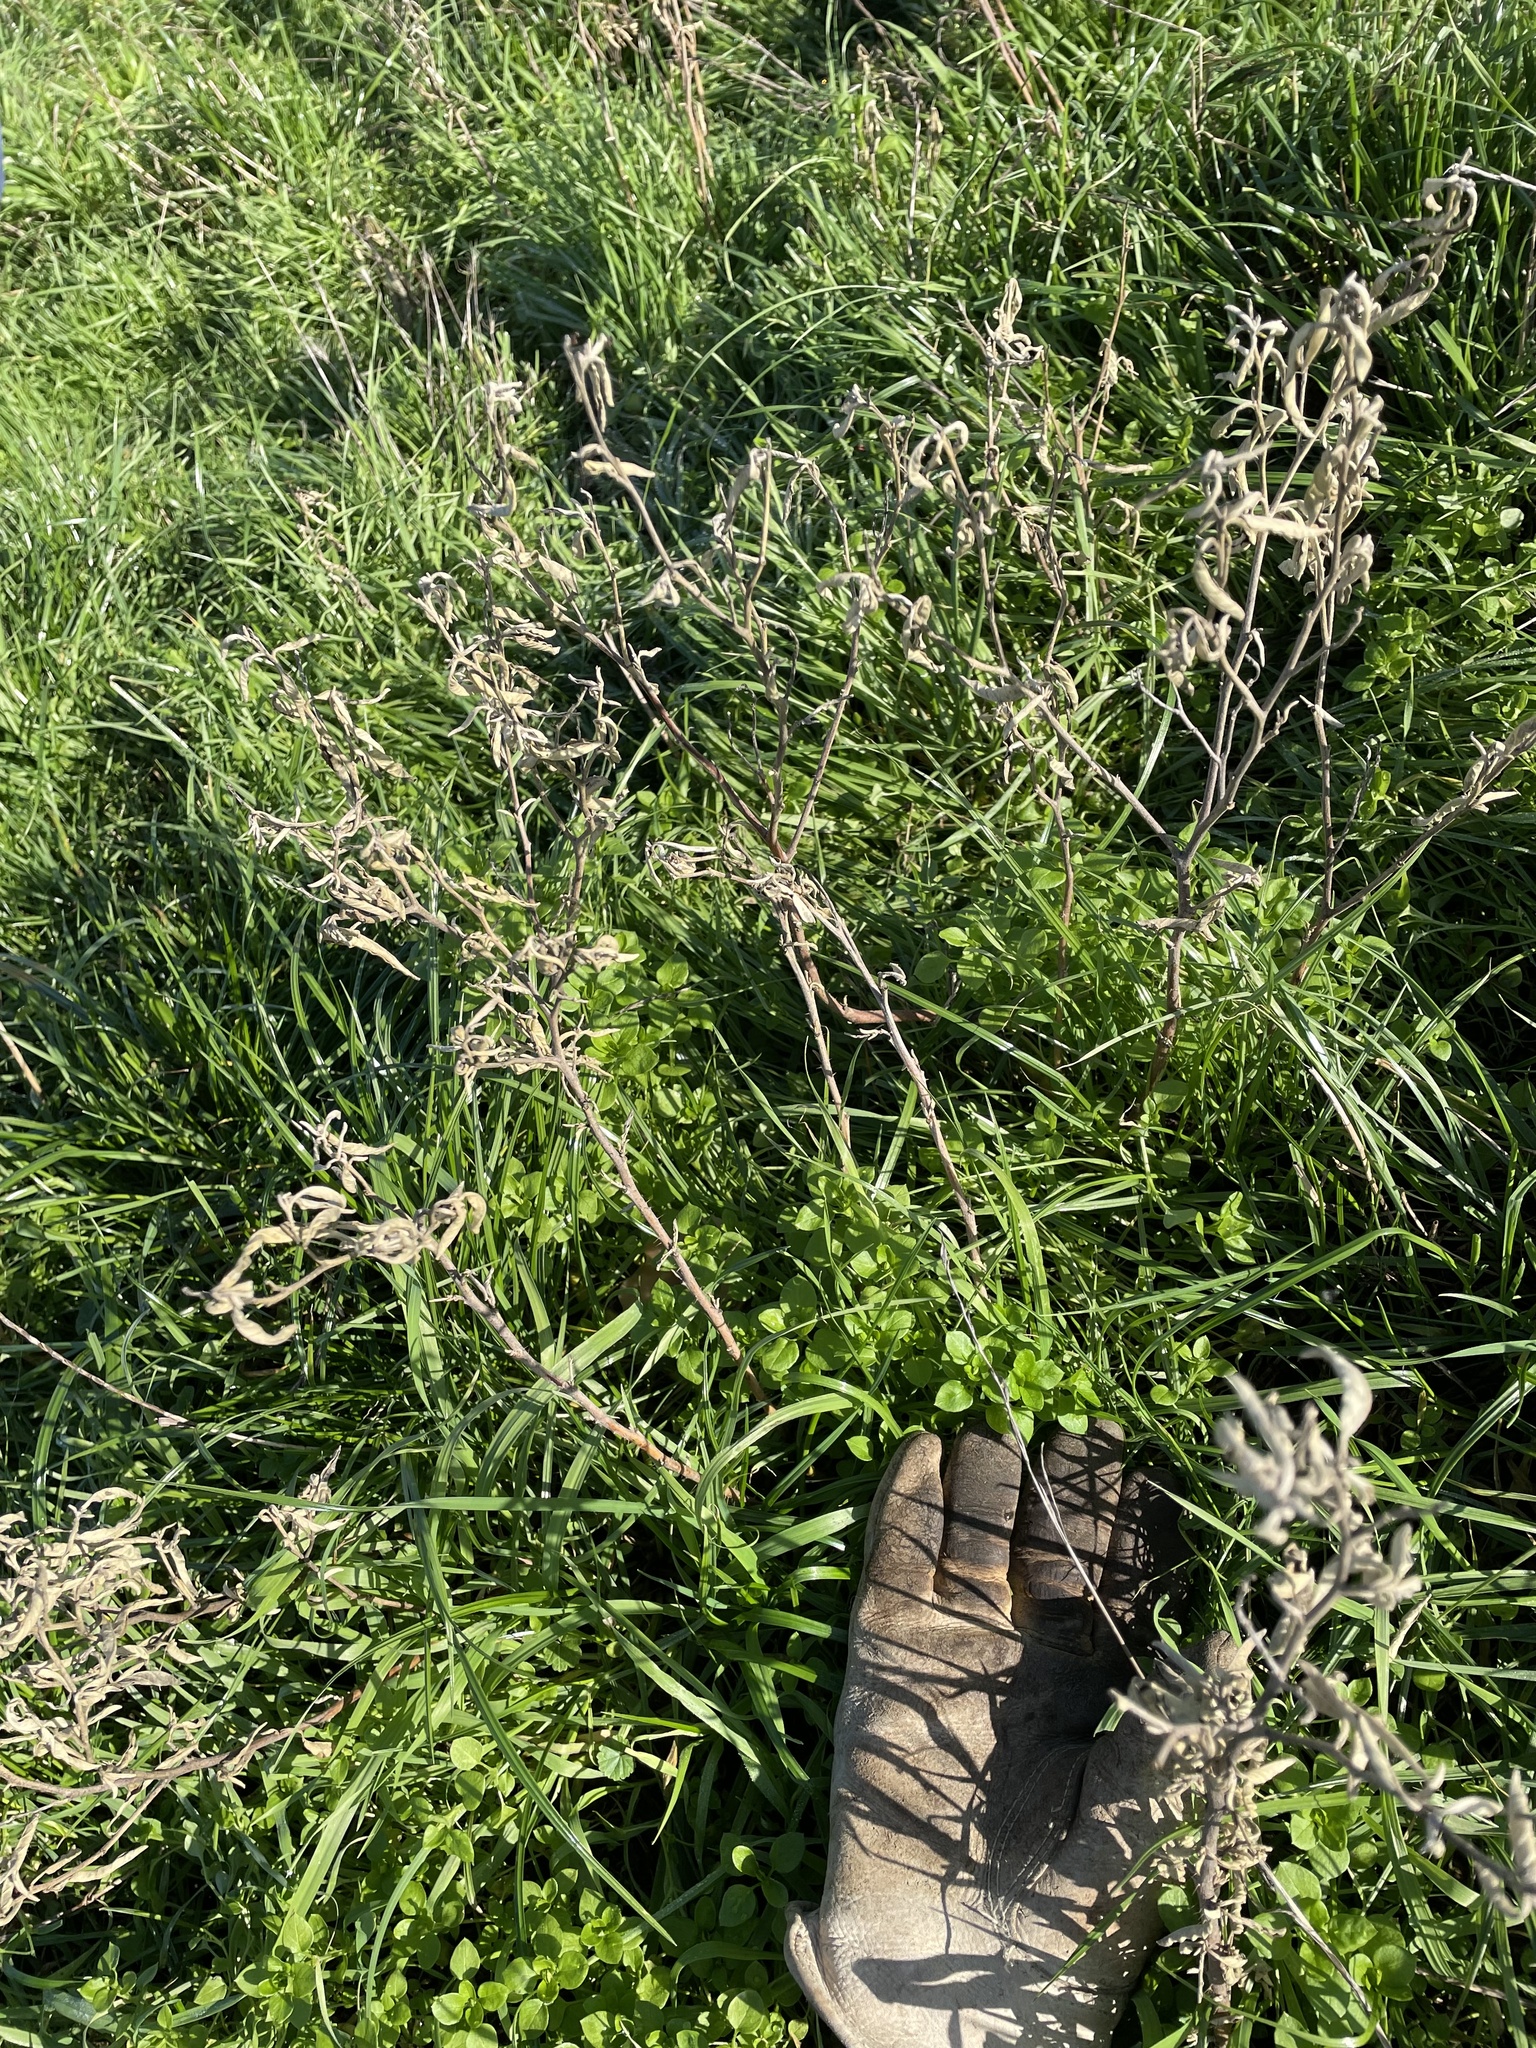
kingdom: Plantae
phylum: Tracheophyta
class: Magnoliopsida
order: Solanales
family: Solanaceae
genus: Solanum
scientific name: Solanum elaeagnifolium
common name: Silverleaf nightshade
